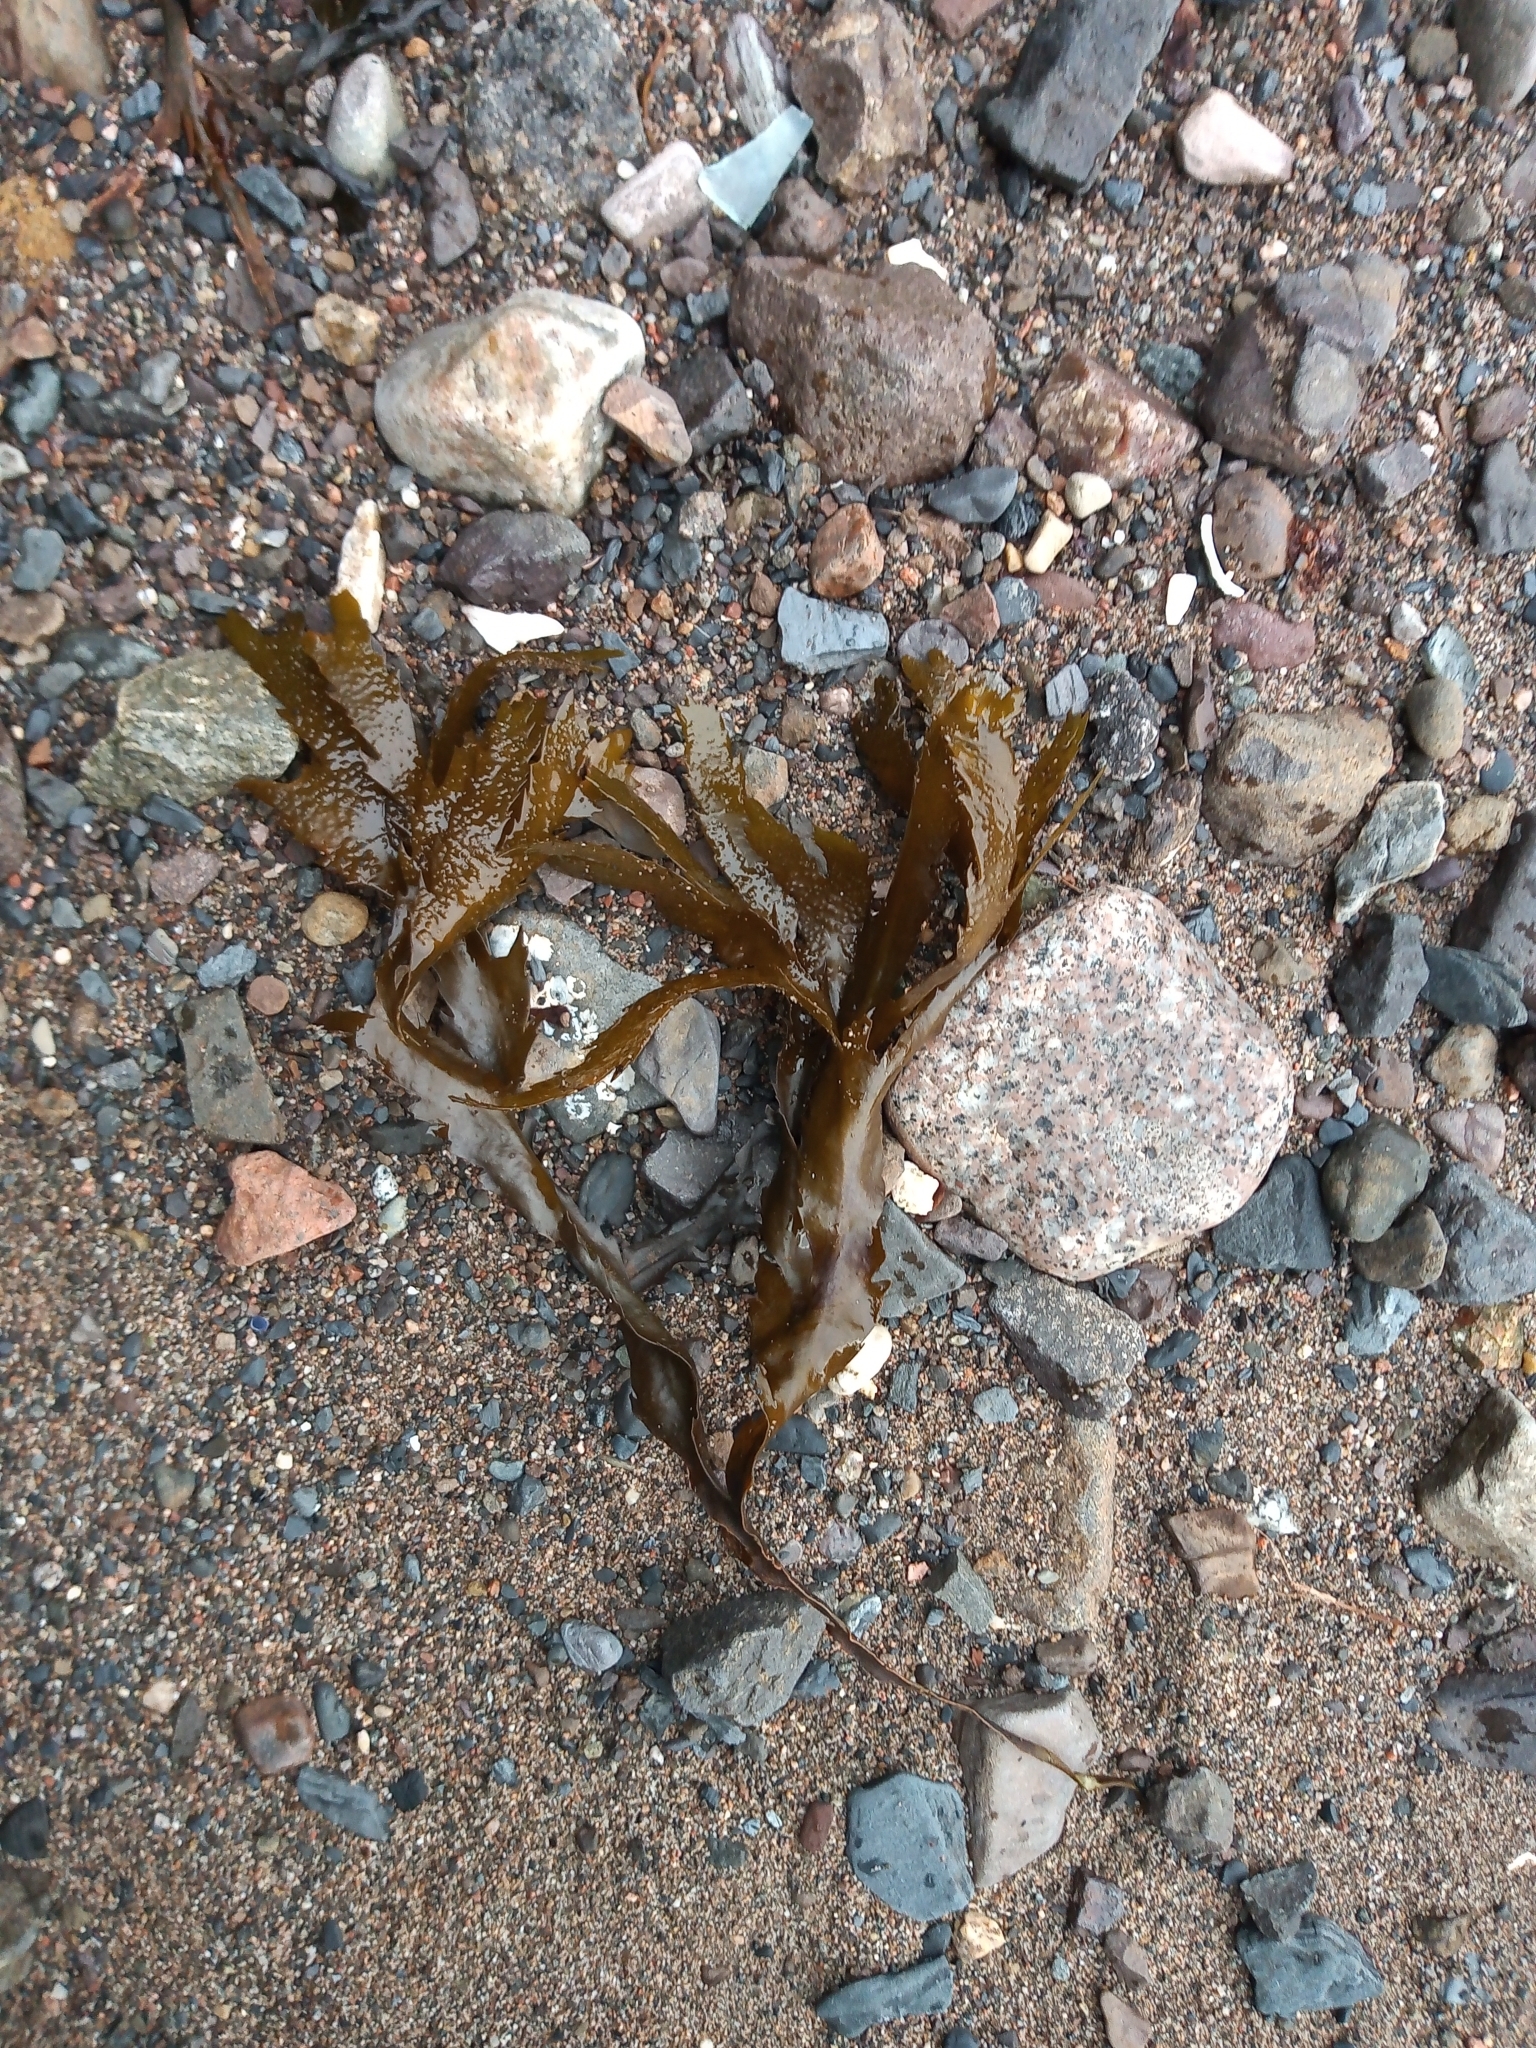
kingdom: Chromista
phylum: Ochrophyta
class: Phaeophyceae
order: Fucales
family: Fucaceae
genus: Fucus
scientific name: Fucus serratus
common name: Toothed wrack
